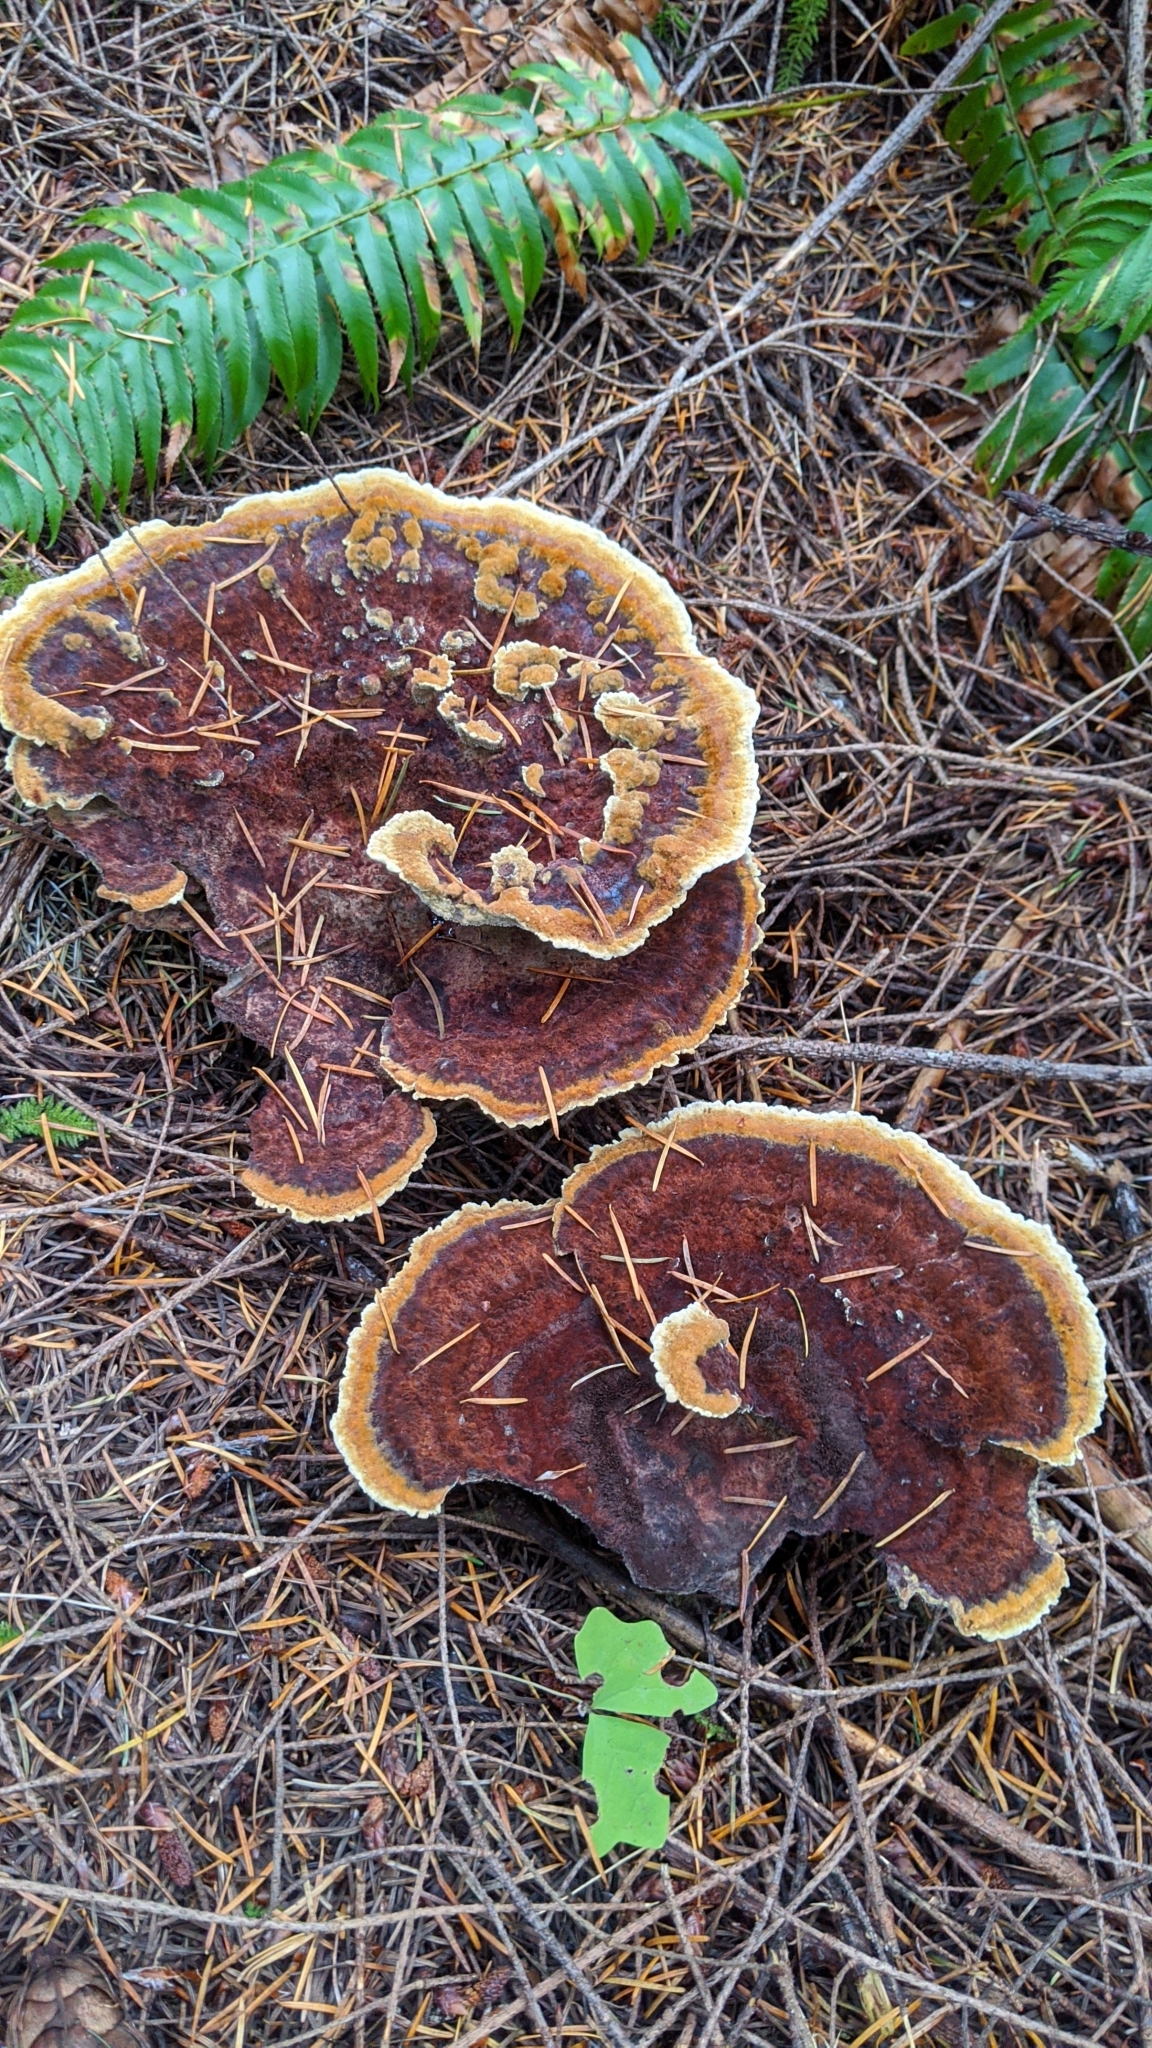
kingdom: Fungi
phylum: Basidiomycota
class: Agaricomycetes
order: Polyporales
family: Laetiporaceae
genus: Phaeolus
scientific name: Phaeolus schweinitzii
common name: Dyer's mazegill
